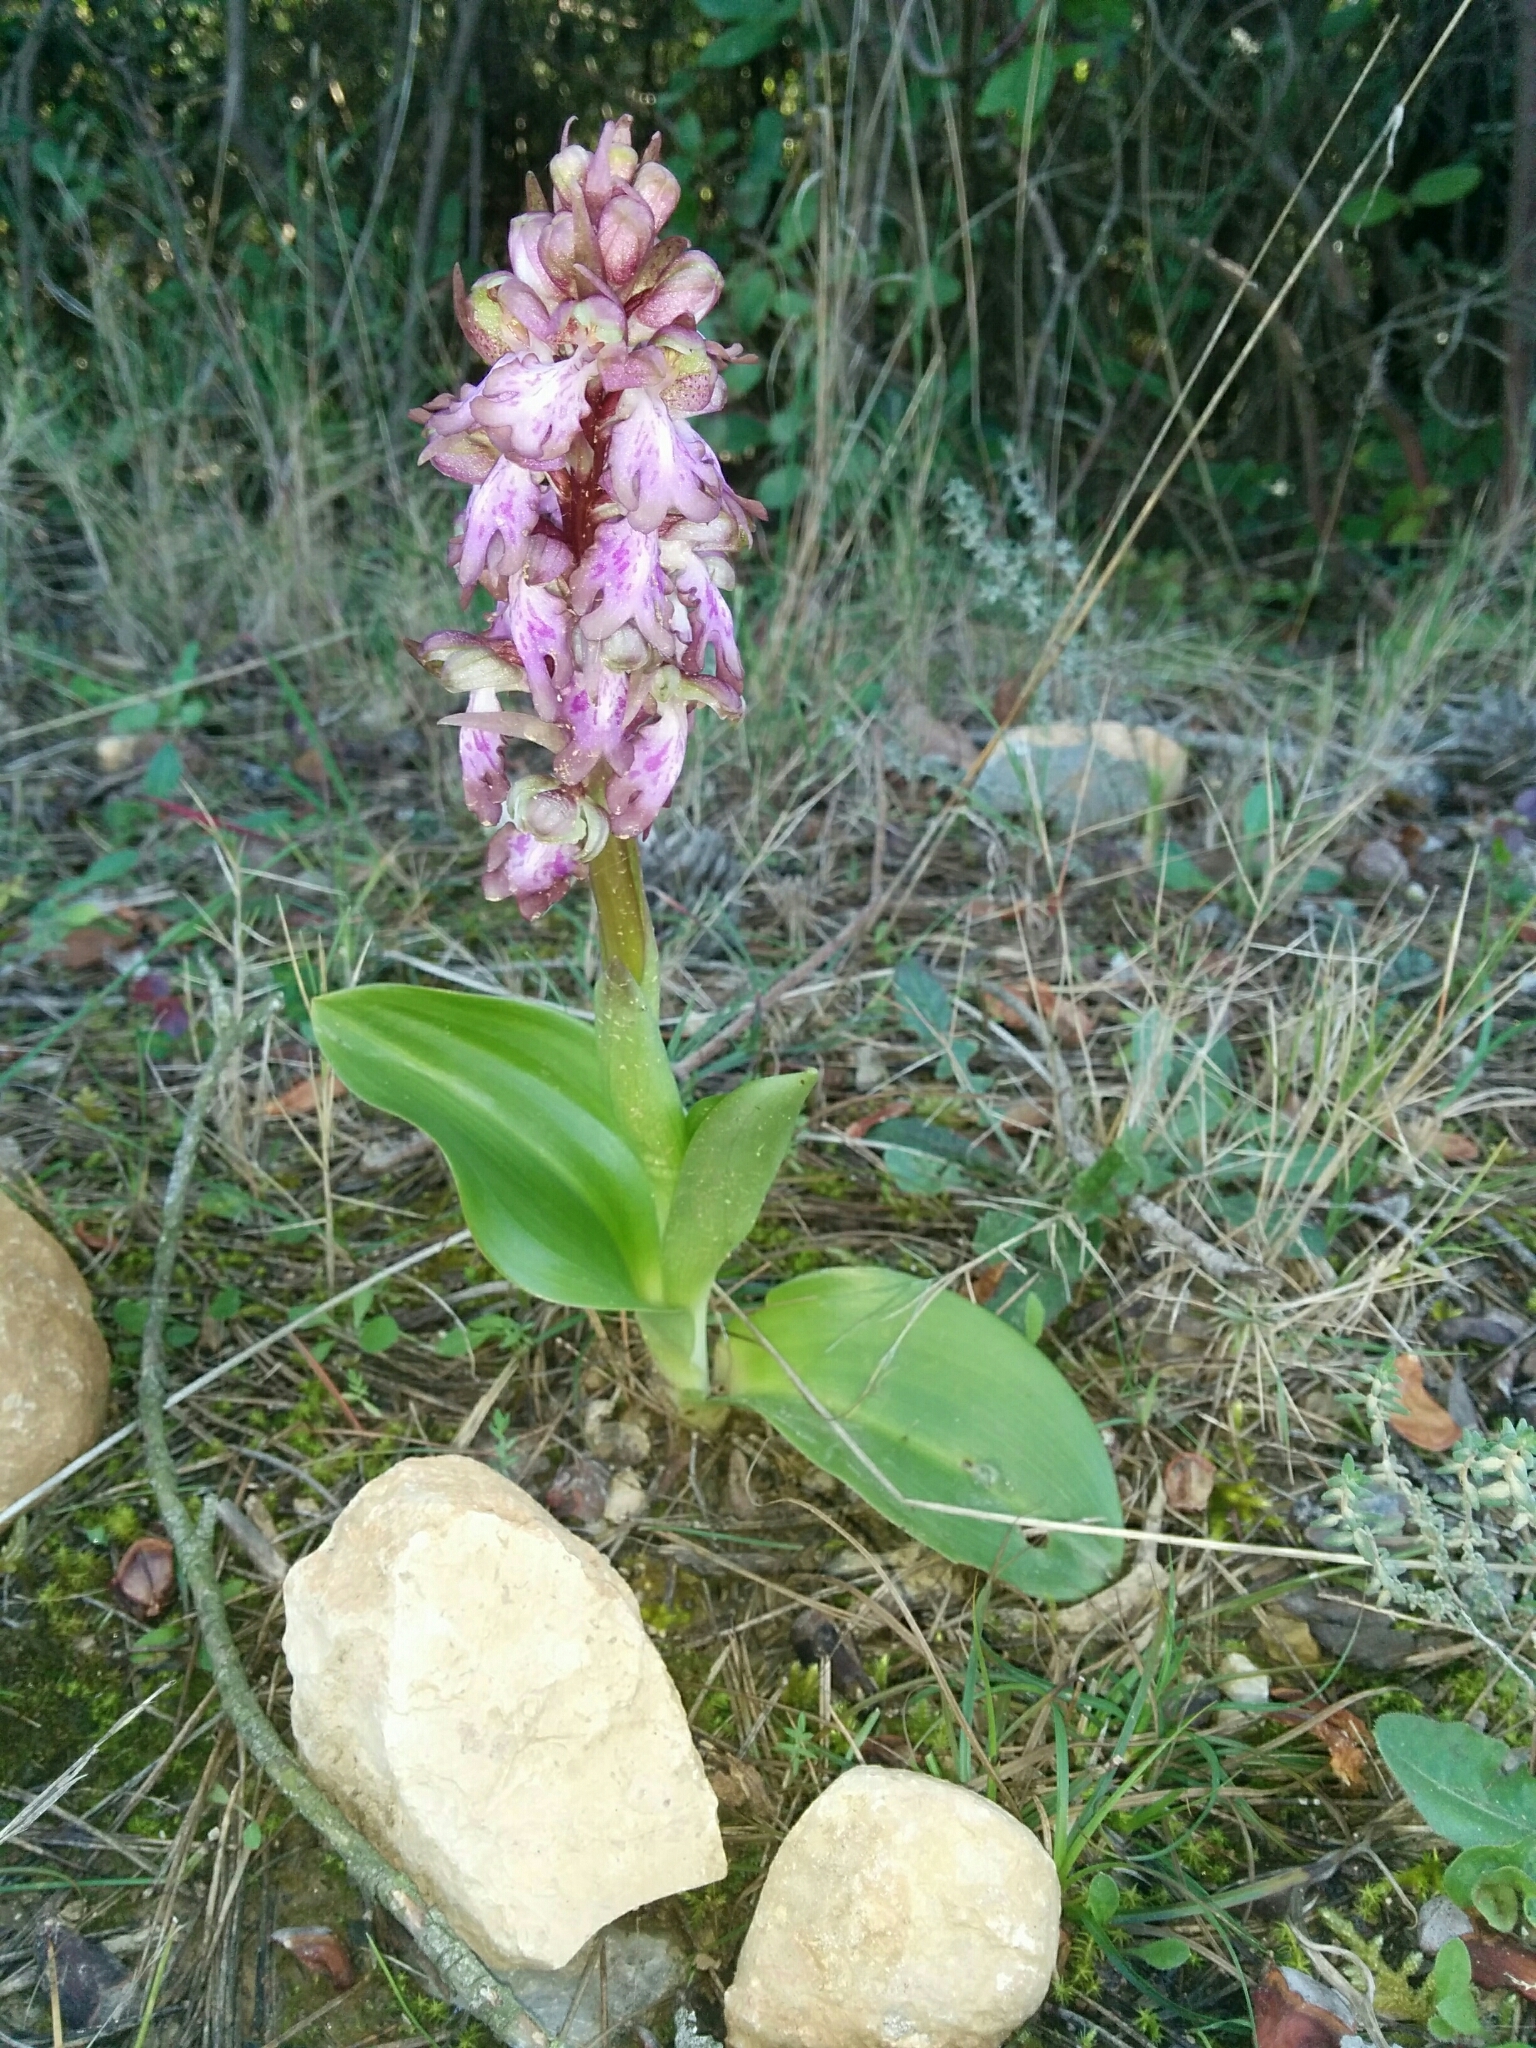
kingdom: Plantae
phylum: Tracheophyta
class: Liliopsida
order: Asparagales
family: Orchidaceae
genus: Himantoglossum
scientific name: Himantoglossum robertianum
